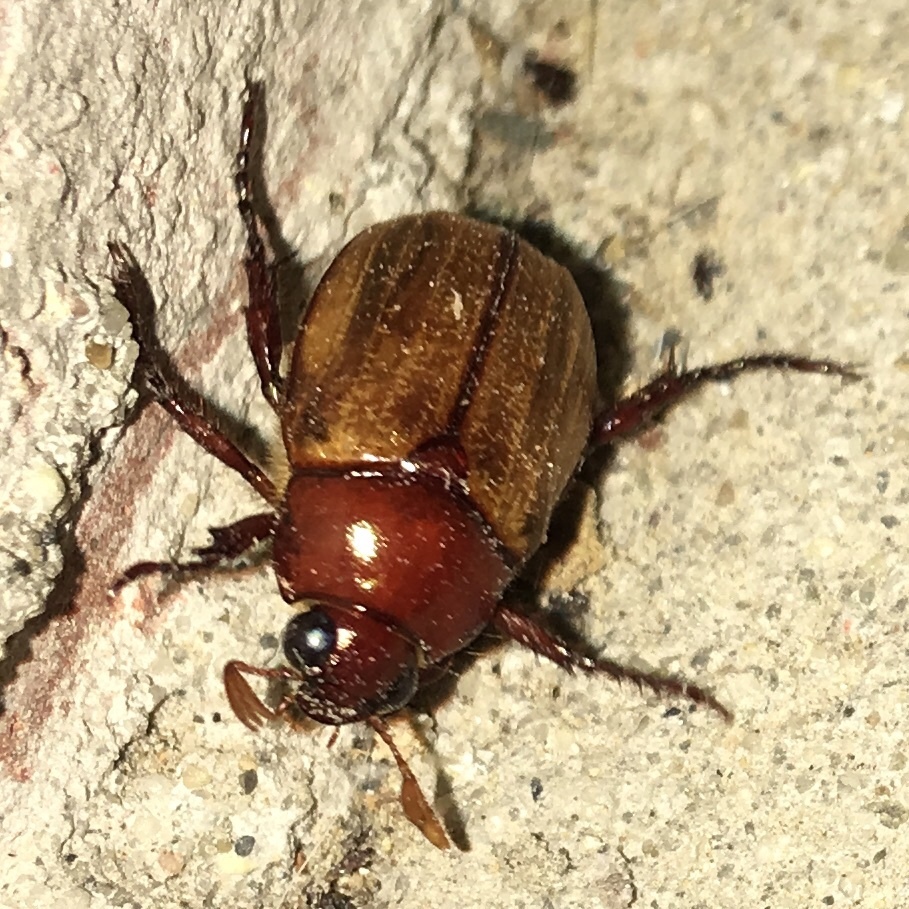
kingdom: Animalia
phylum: Arthropoda
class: Insecta
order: Coleoptera
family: Scarabaeidae
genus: Paranomala
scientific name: Paranomala flavipennis
